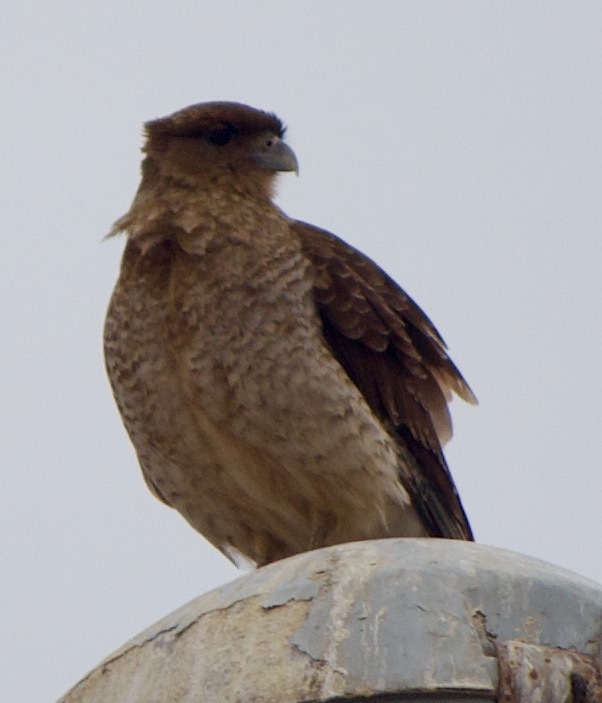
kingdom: Animalia
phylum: Chordata
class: Aves
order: Falconiformes
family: Falconidae
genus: Daptrius
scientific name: Daptrius
